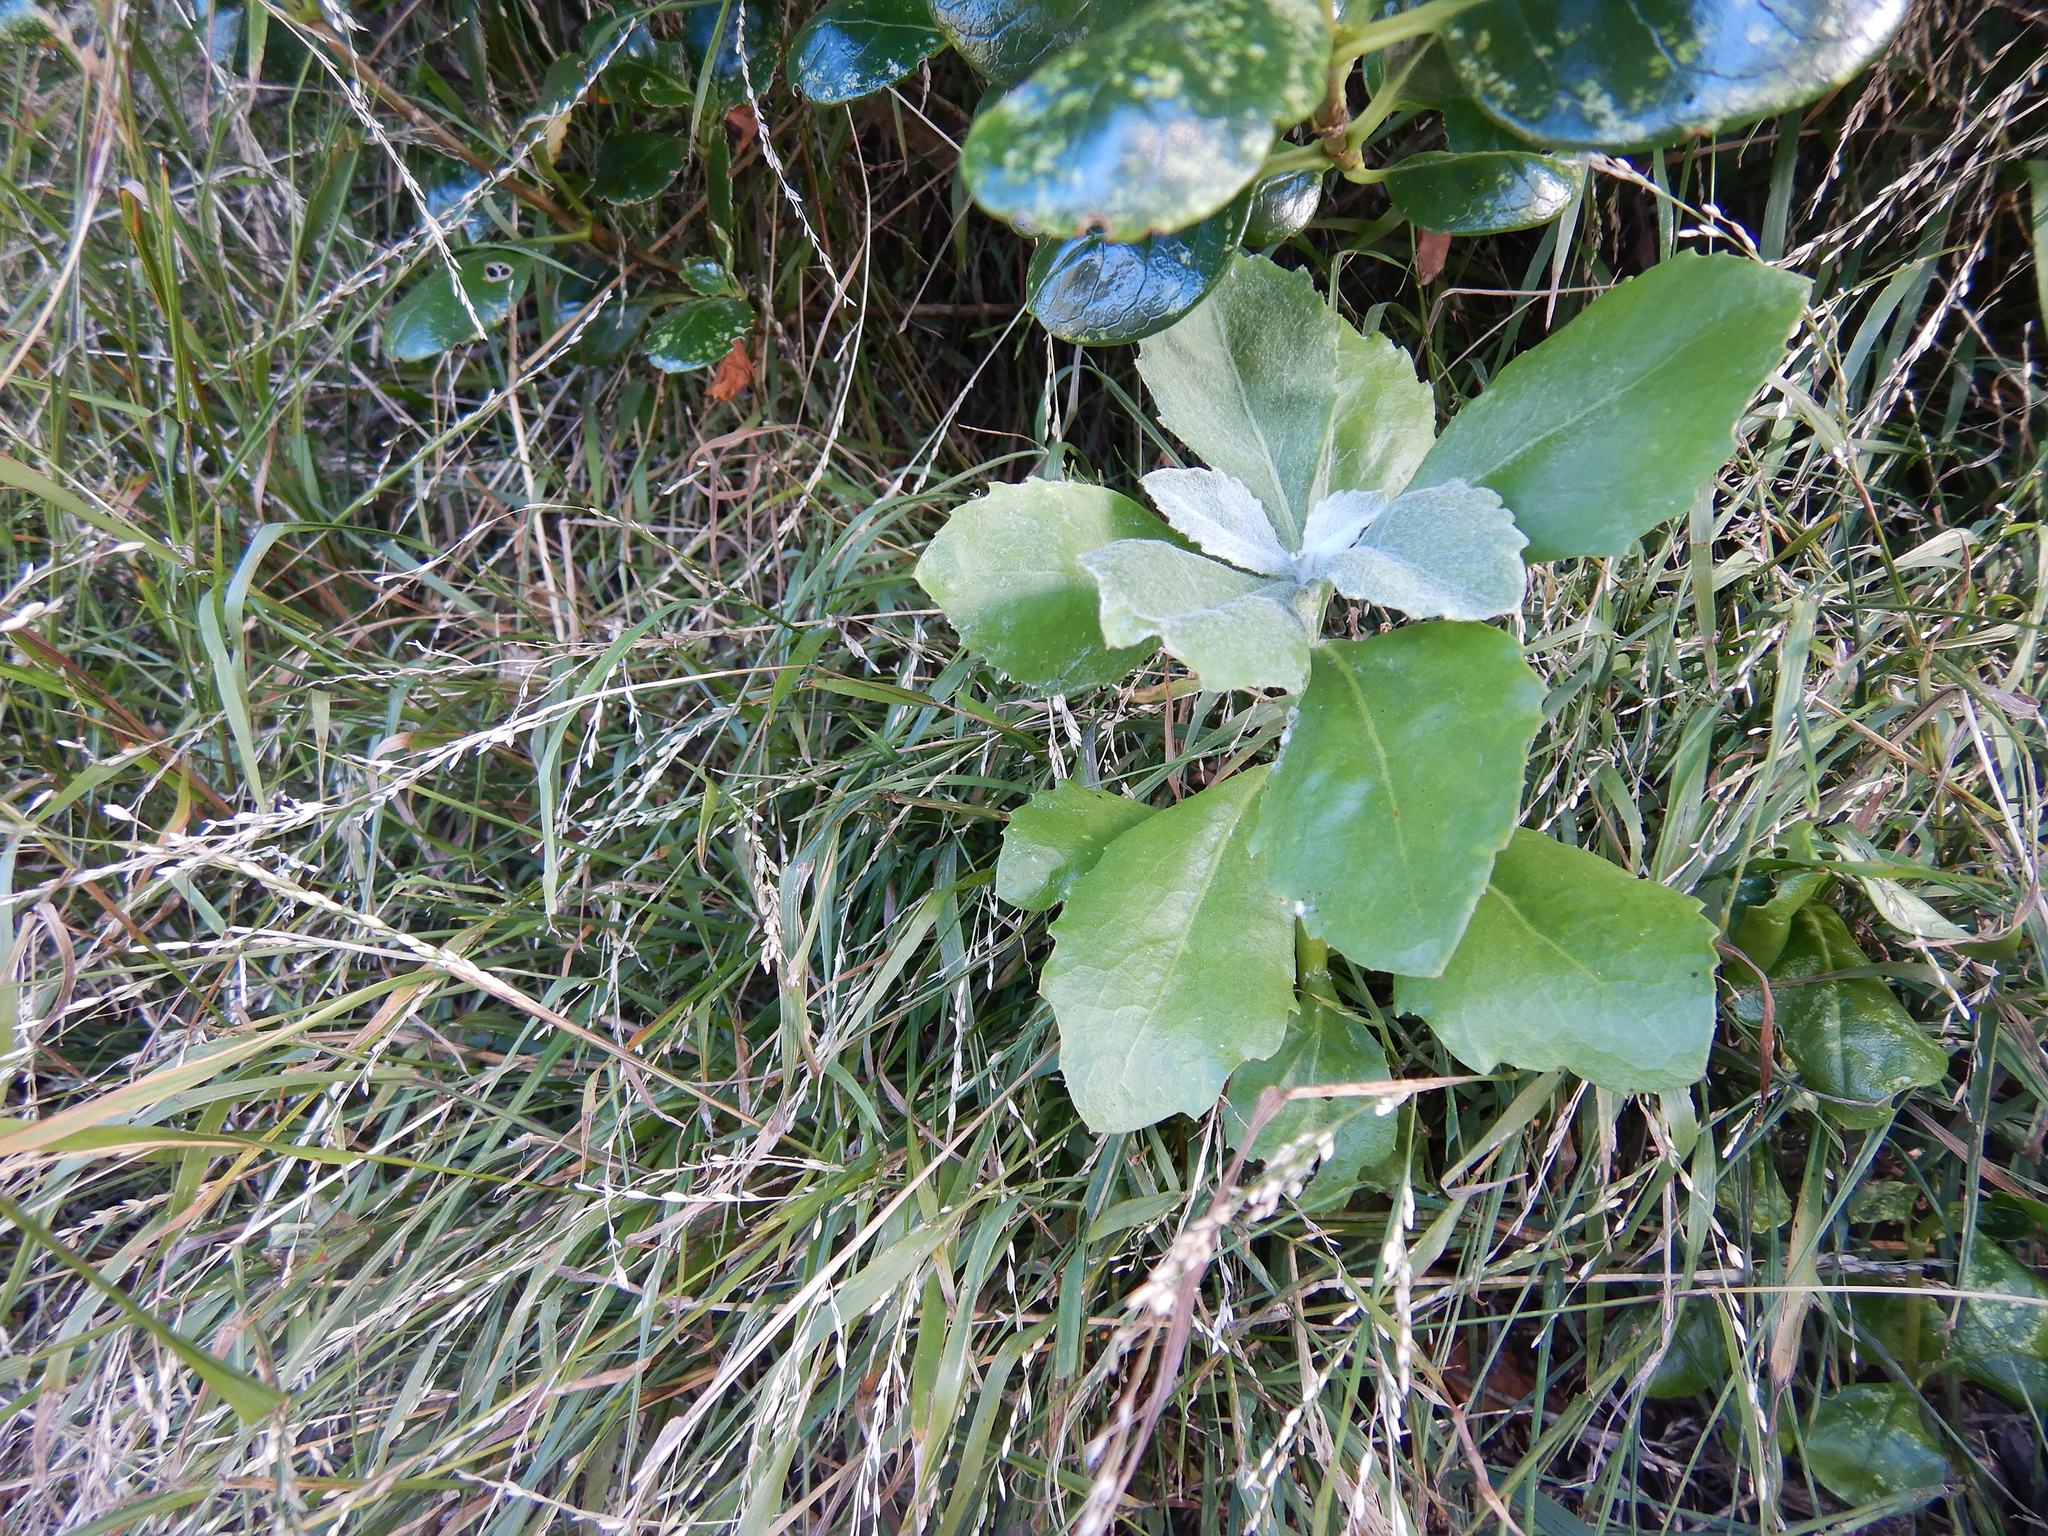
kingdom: Plantae
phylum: Tracheophyta
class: Magnoliopsida
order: Asterales
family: Asteraceae
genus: Osteospermum
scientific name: Osteospermum moniliferum
